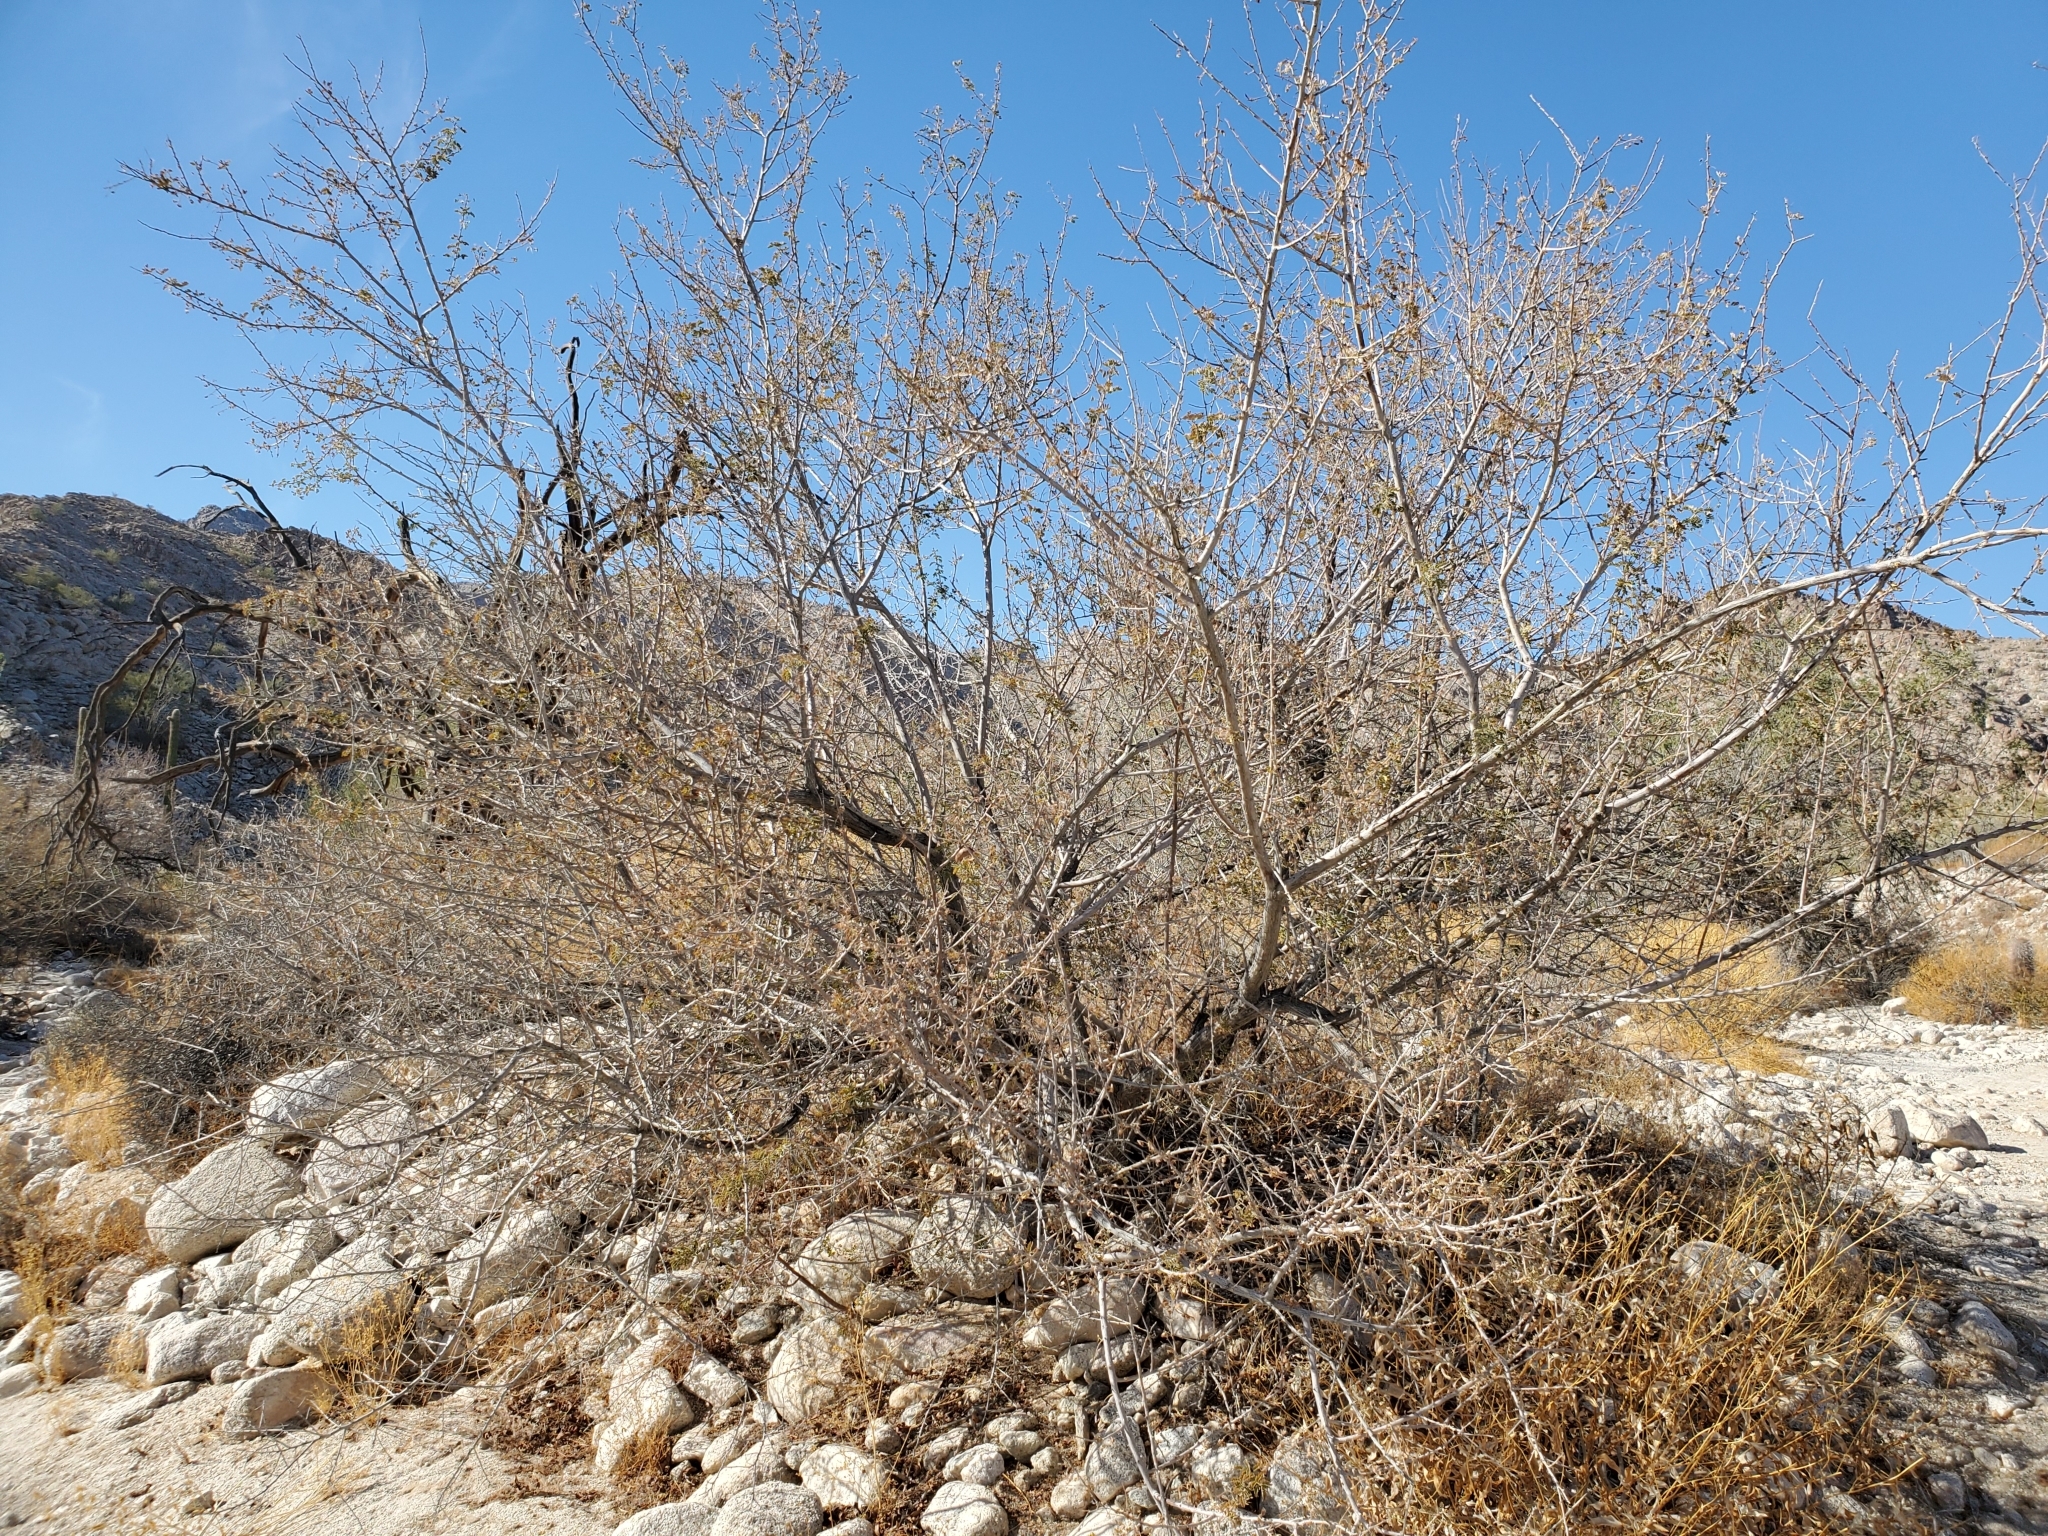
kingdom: Plantae
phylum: Tracheophyta
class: Magnoliopsida
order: Fabales
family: Fabaceae
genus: Senegalia
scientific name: Senegalia greggii
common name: Texas-mimosa
